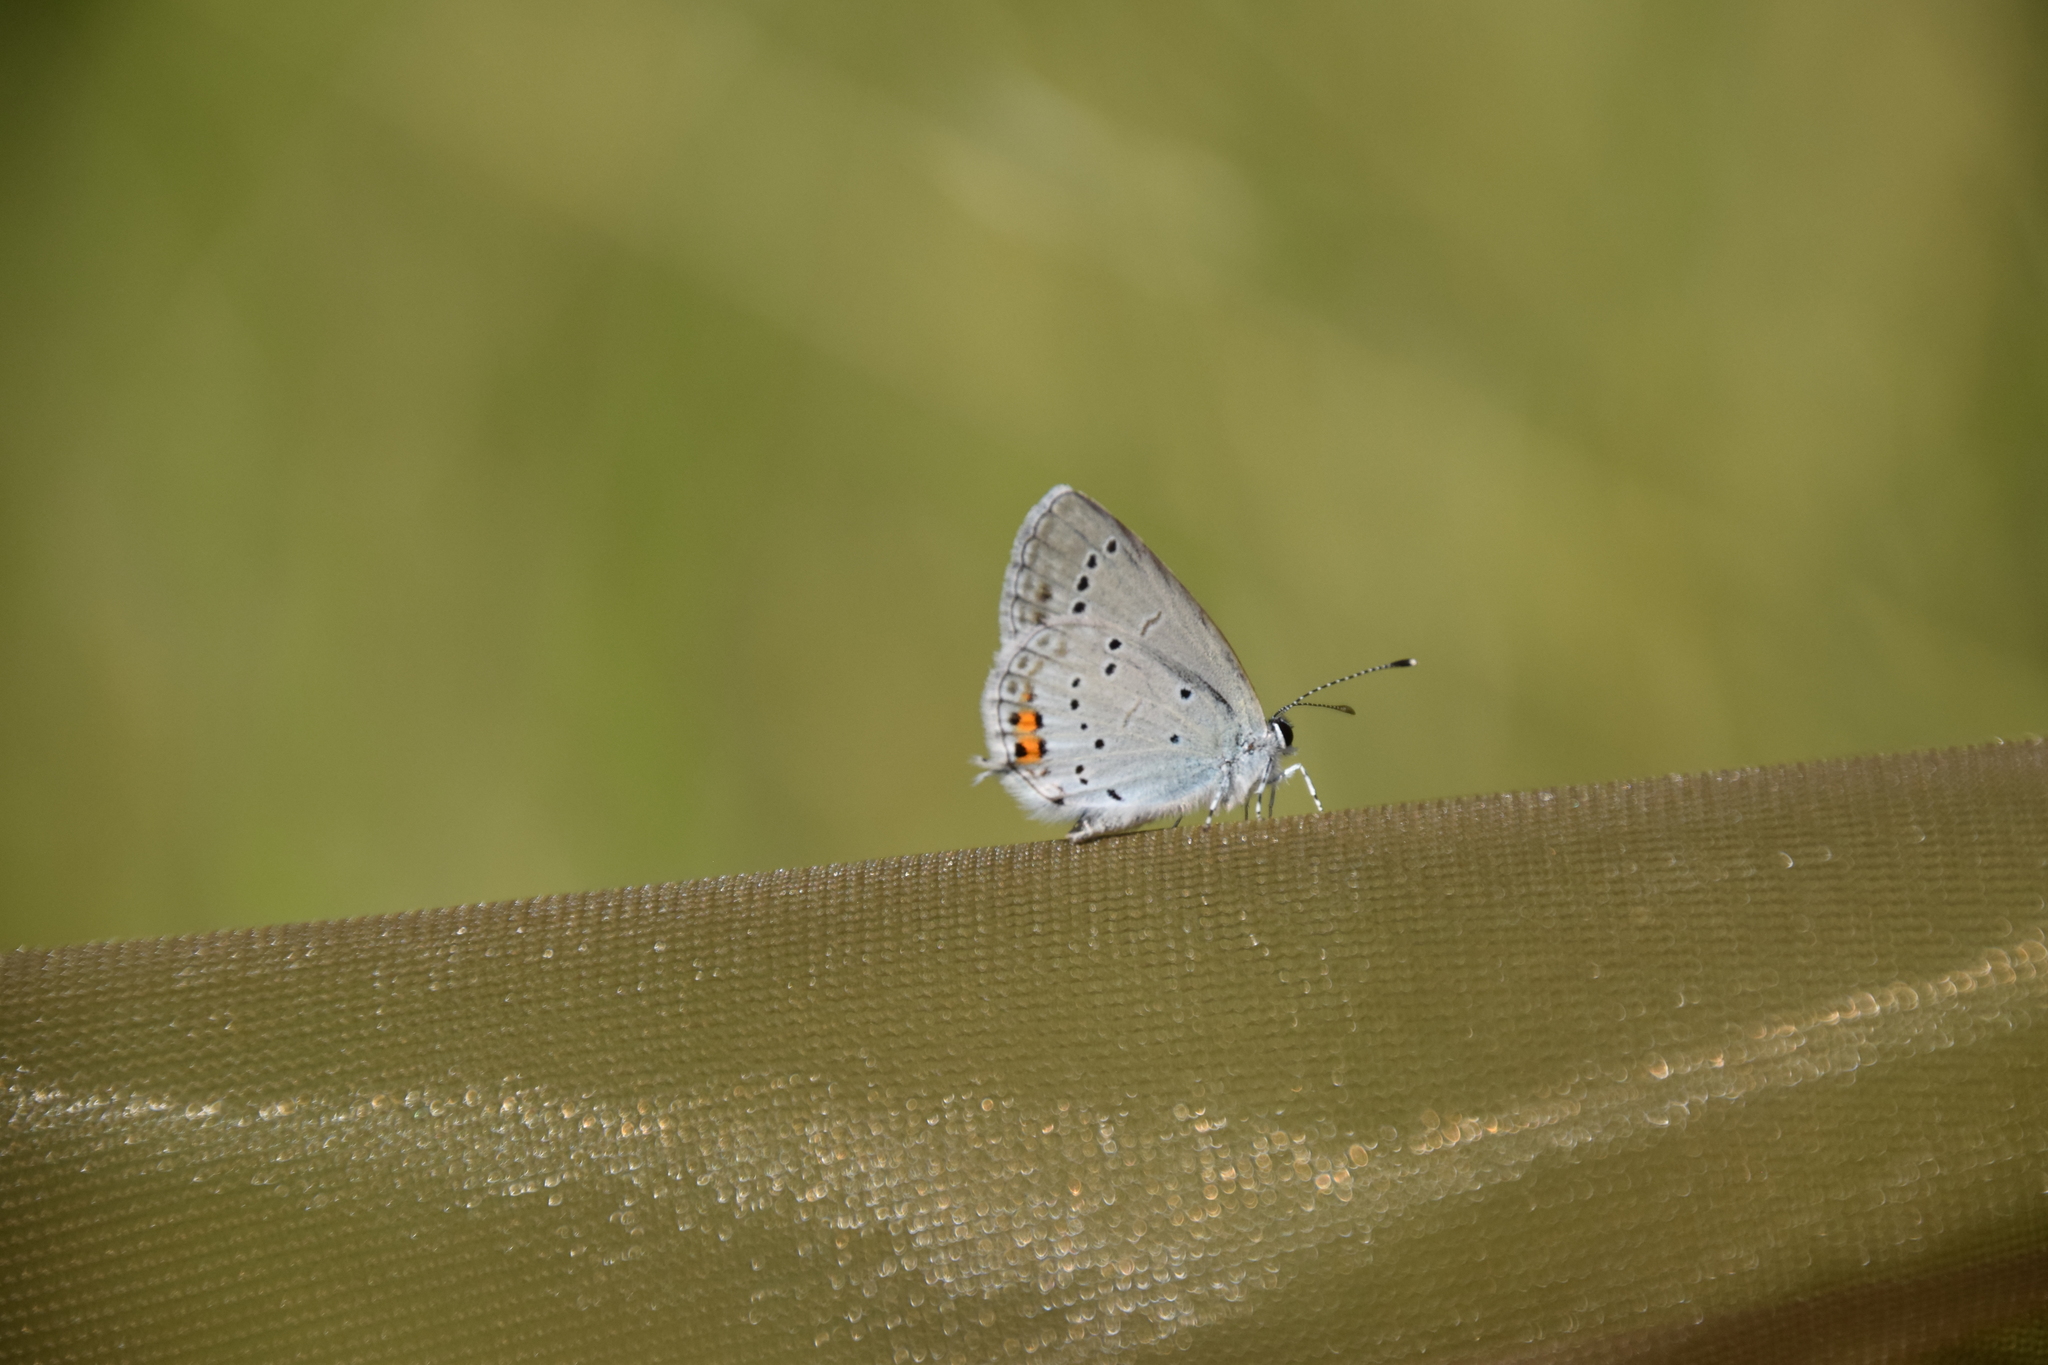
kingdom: Animalia
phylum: Arthropoda
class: Insecta
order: Lepidoptera
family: Lycaenidae
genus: Elkalyce
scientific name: Elkalyce argiades
